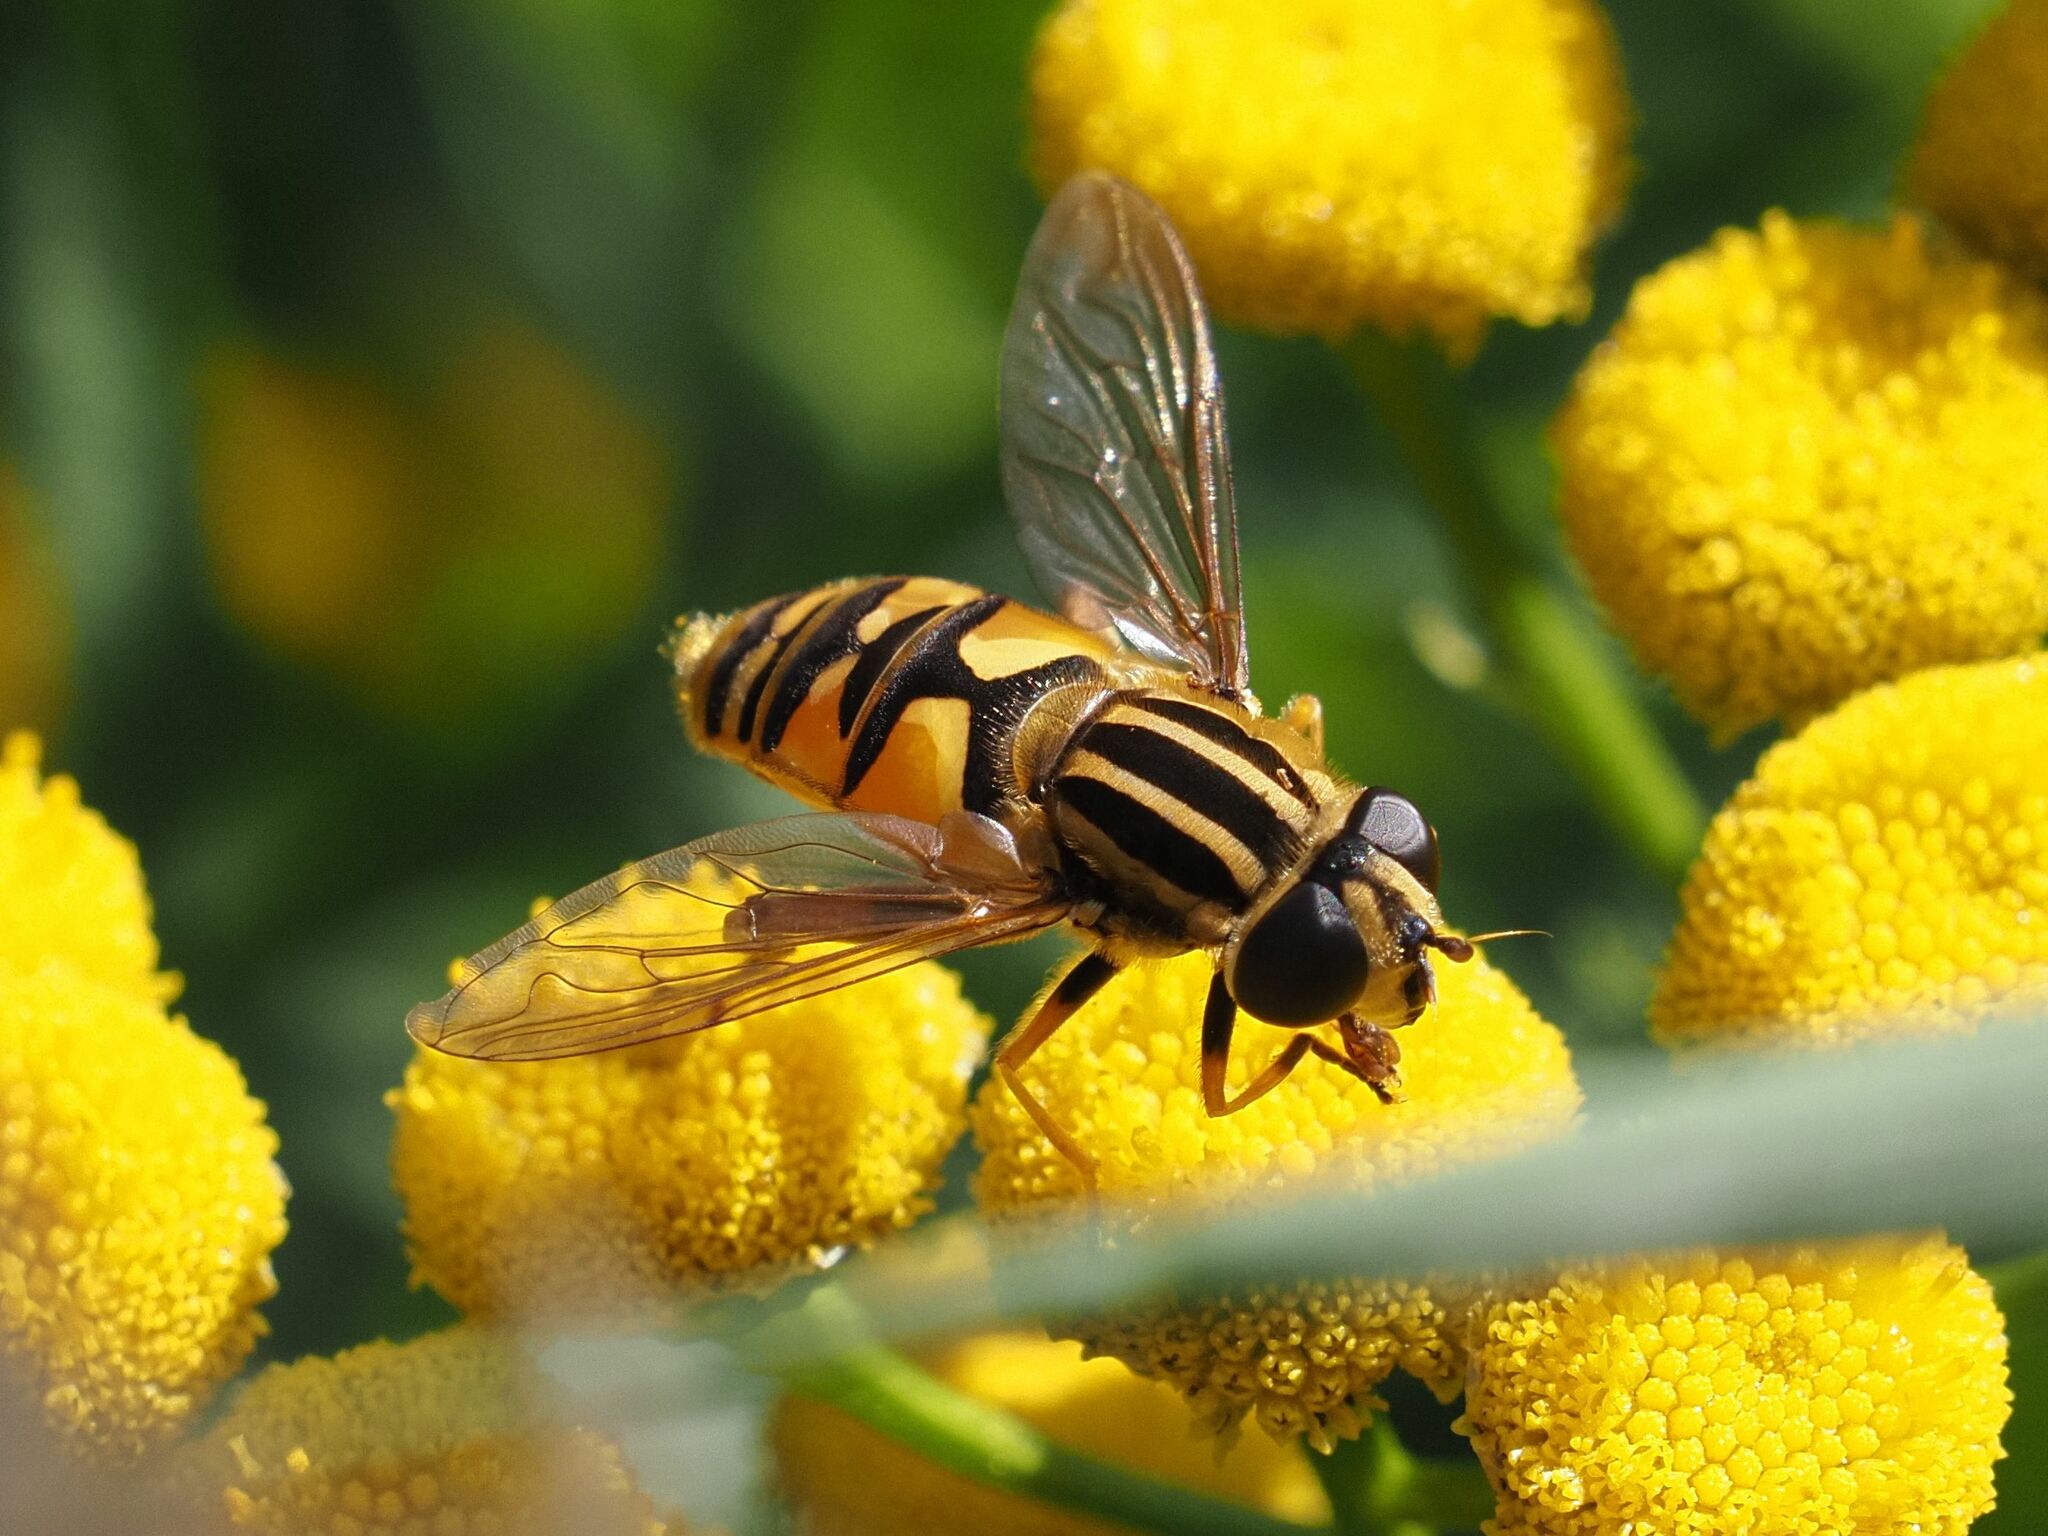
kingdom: Animalia
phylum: Arthropoda
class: Insecta
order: Diptera
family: Syrphidae
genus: Helophilus
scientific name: Helophilus pendulus
